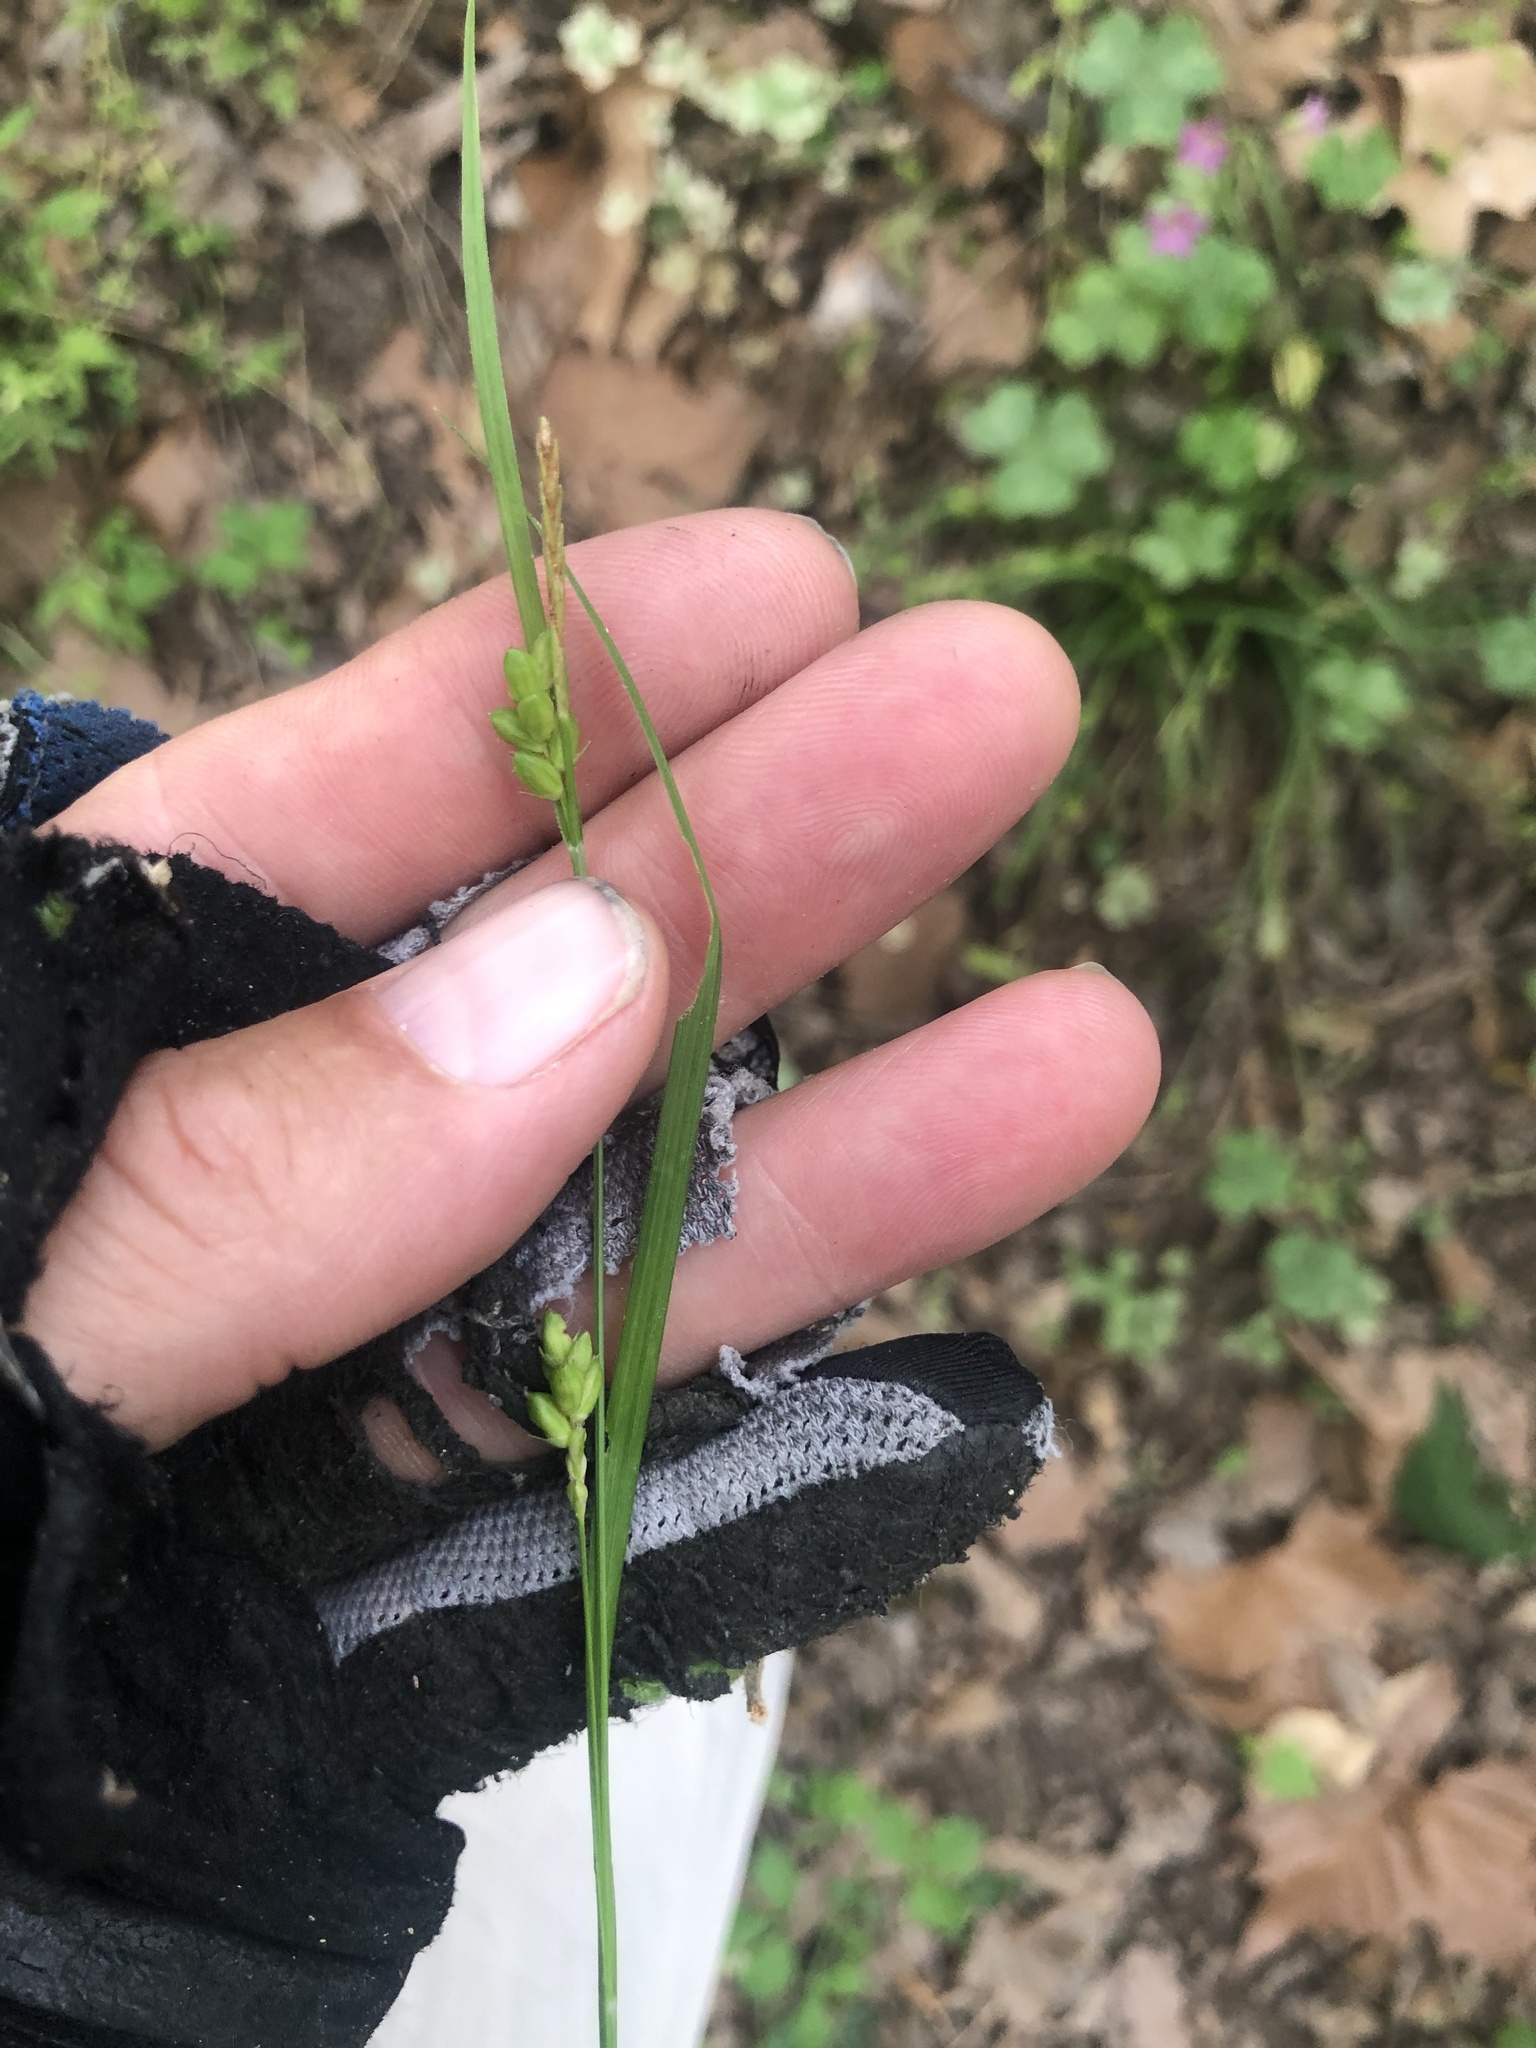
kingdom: Plantae
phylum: Tracheophyta
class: Liliopsida
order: Poales
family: Cyperaceae
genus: Carex
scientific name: Carex corrugata
